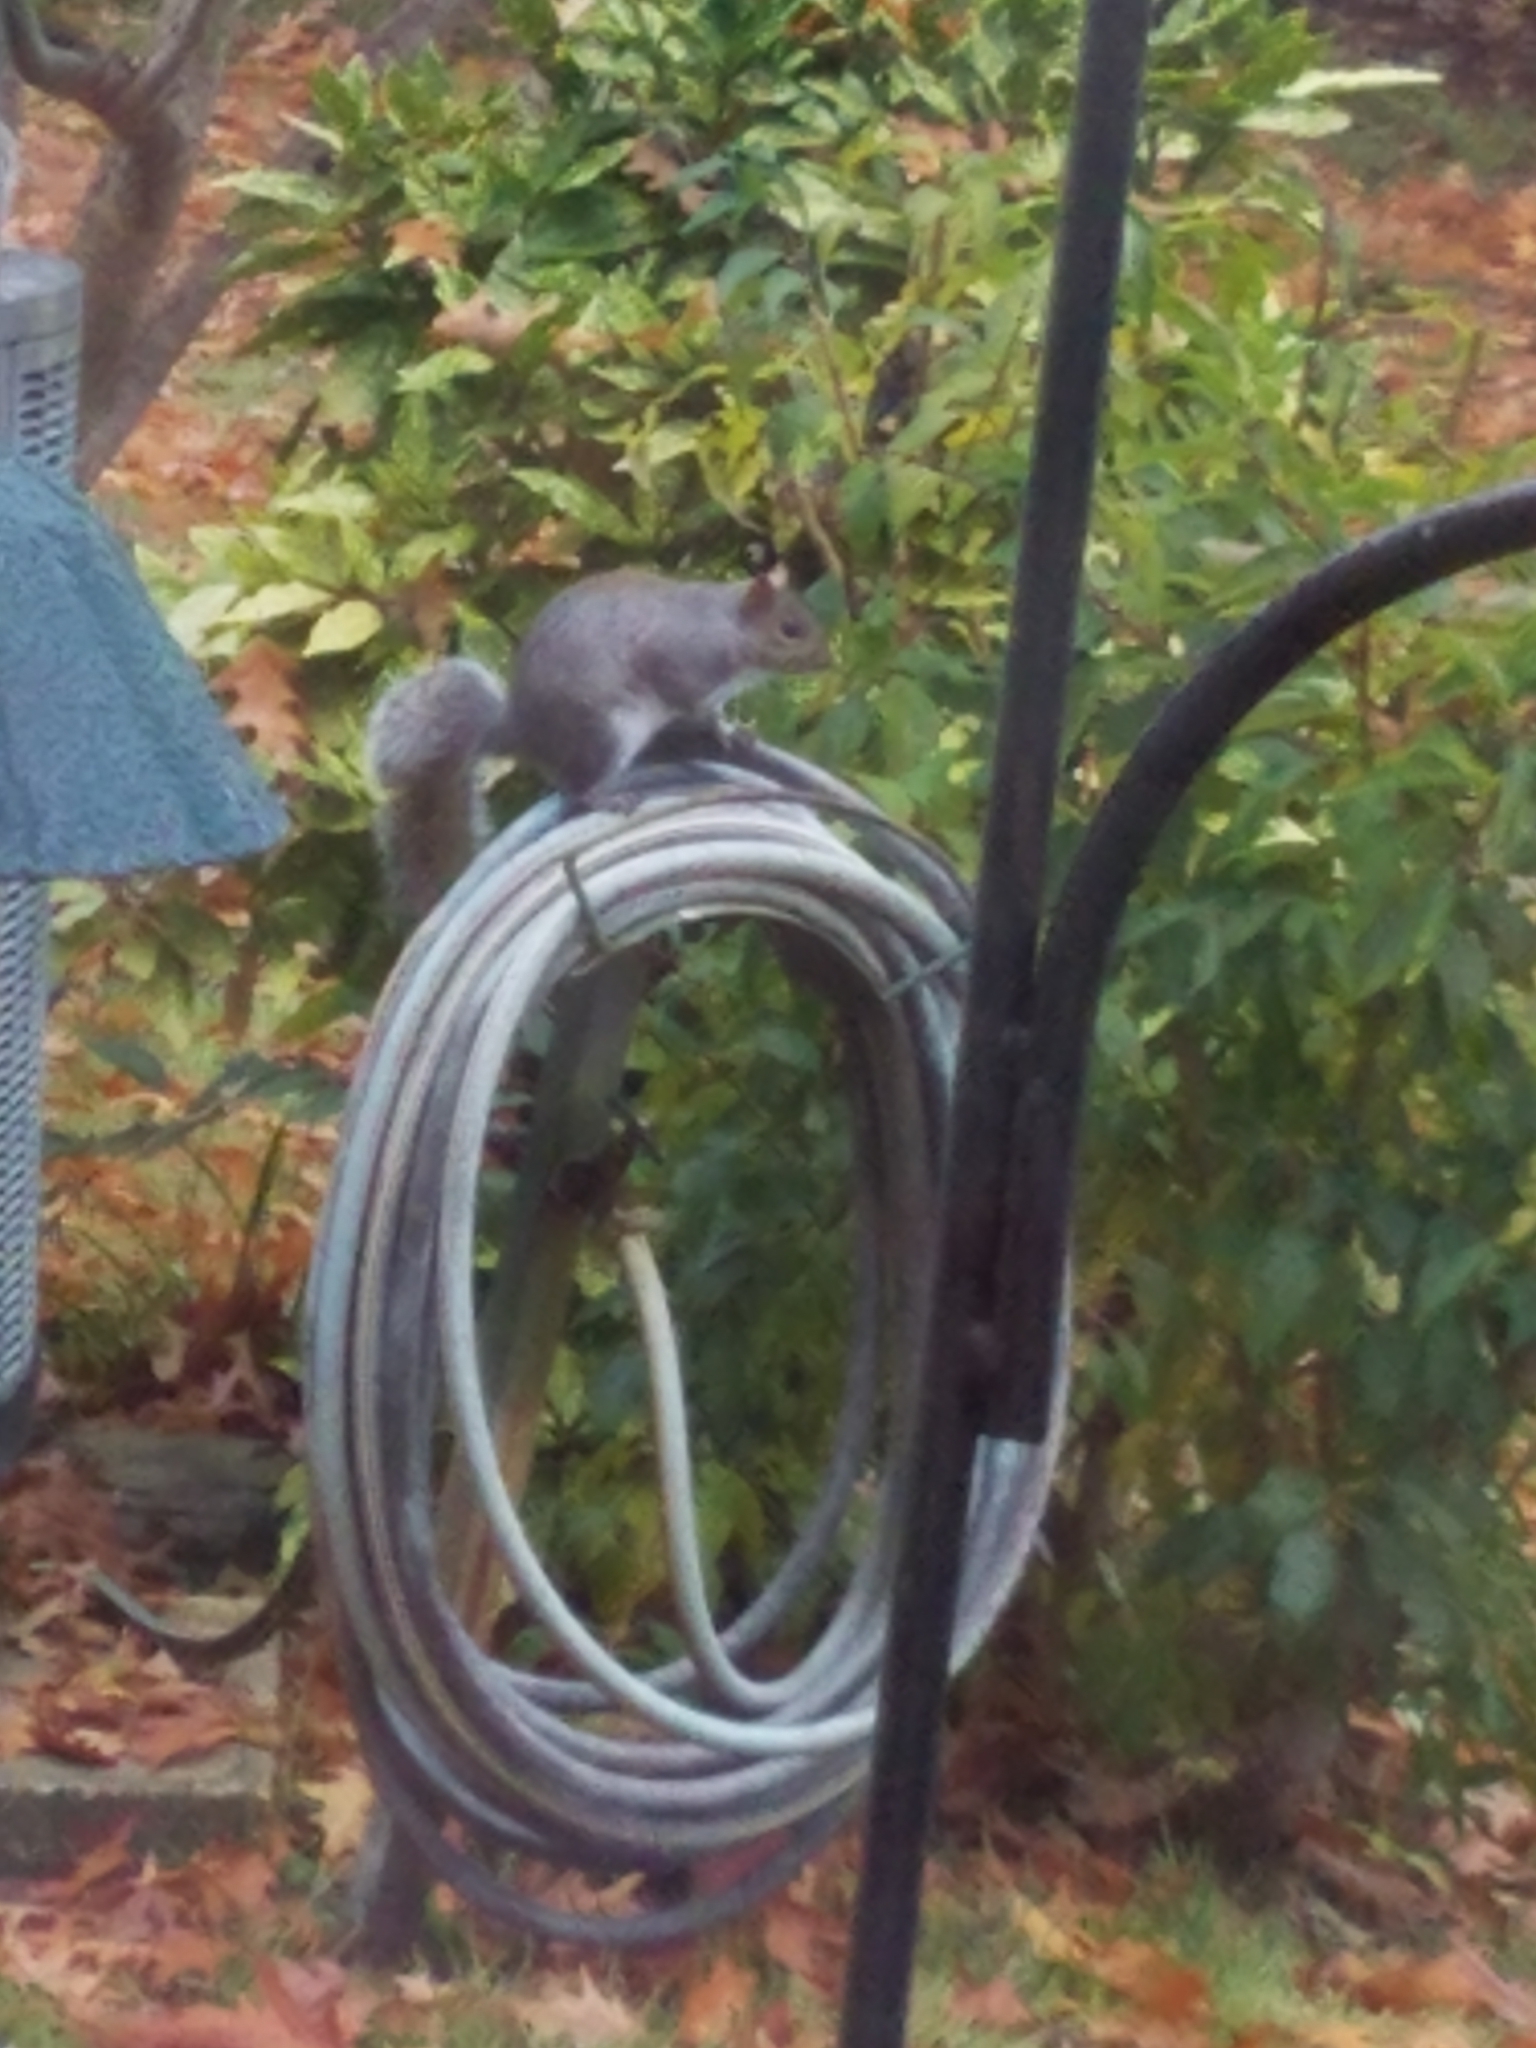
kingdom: Animalia
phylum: Chordata
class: Mammalia
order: Rodentia
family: Sciuridae
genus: Sciurus
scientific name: Sciurus carolinensis
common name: Eastern gray squirrel
